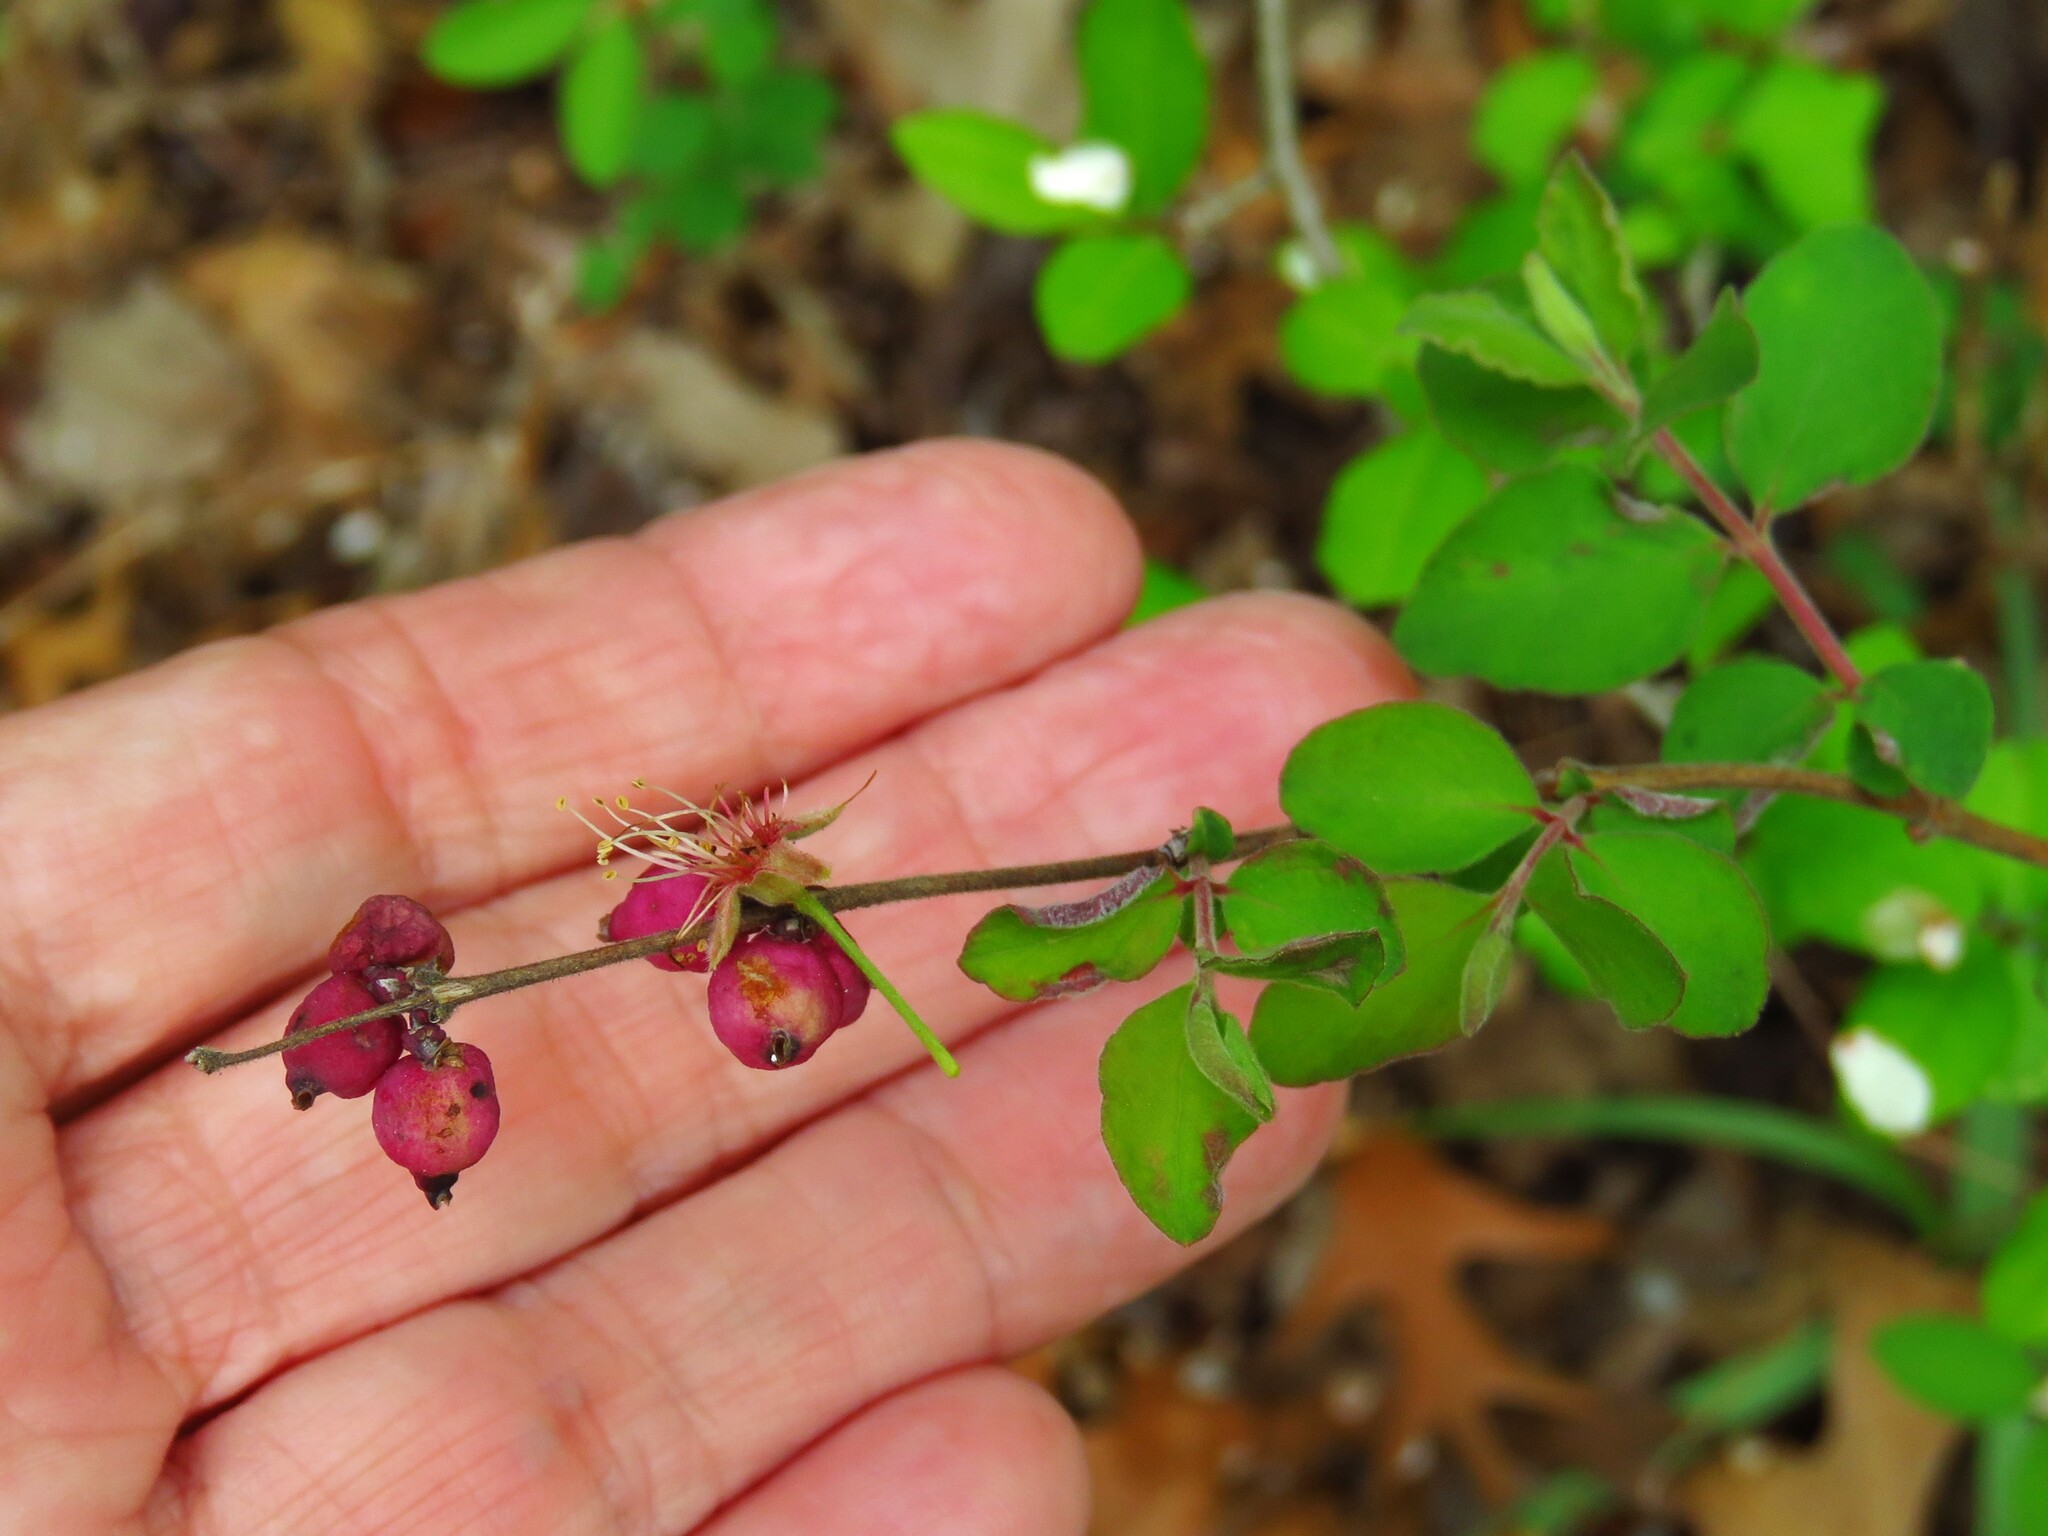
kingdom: Plantae
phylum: Tracheophyta
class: Magnoliopsida
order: Dipsacales
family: Caprifoliaceae
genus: Symphoricarpos
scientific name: Symphoricarpos orbiculatus
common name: Coralberry
